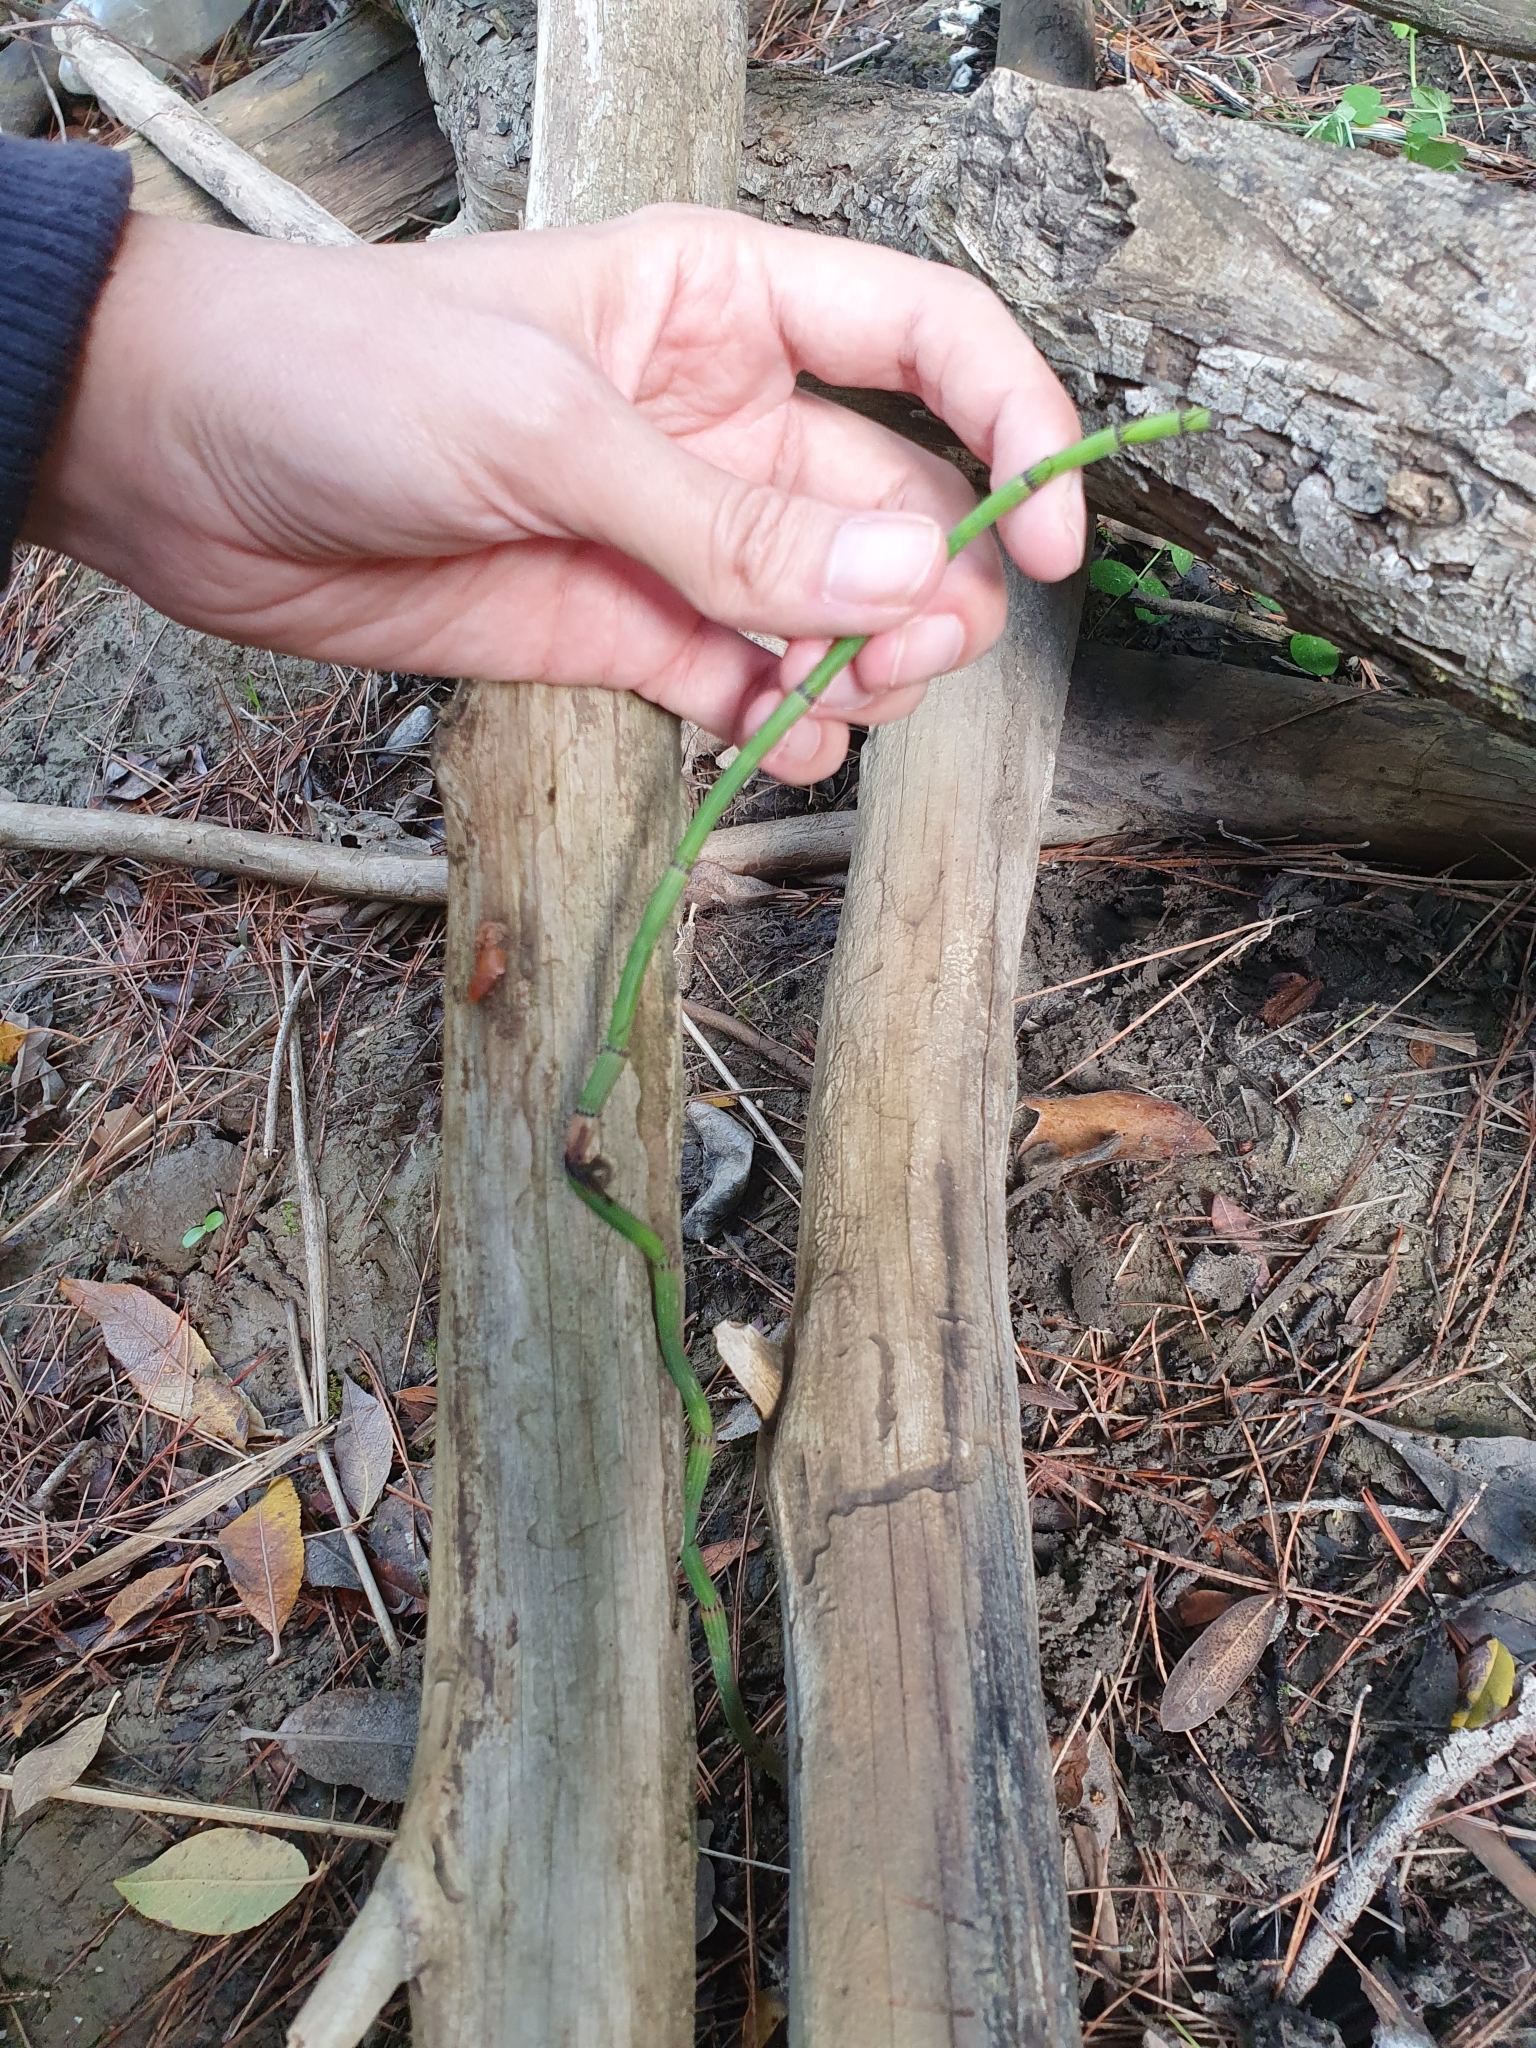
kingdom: Plantae
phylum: Tracheophyta
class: Polypodiopsida
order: Equisetales
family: Equisetaceae
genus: Equisetum
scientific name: Equisetum ramosissimum
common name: Branched horsetail
